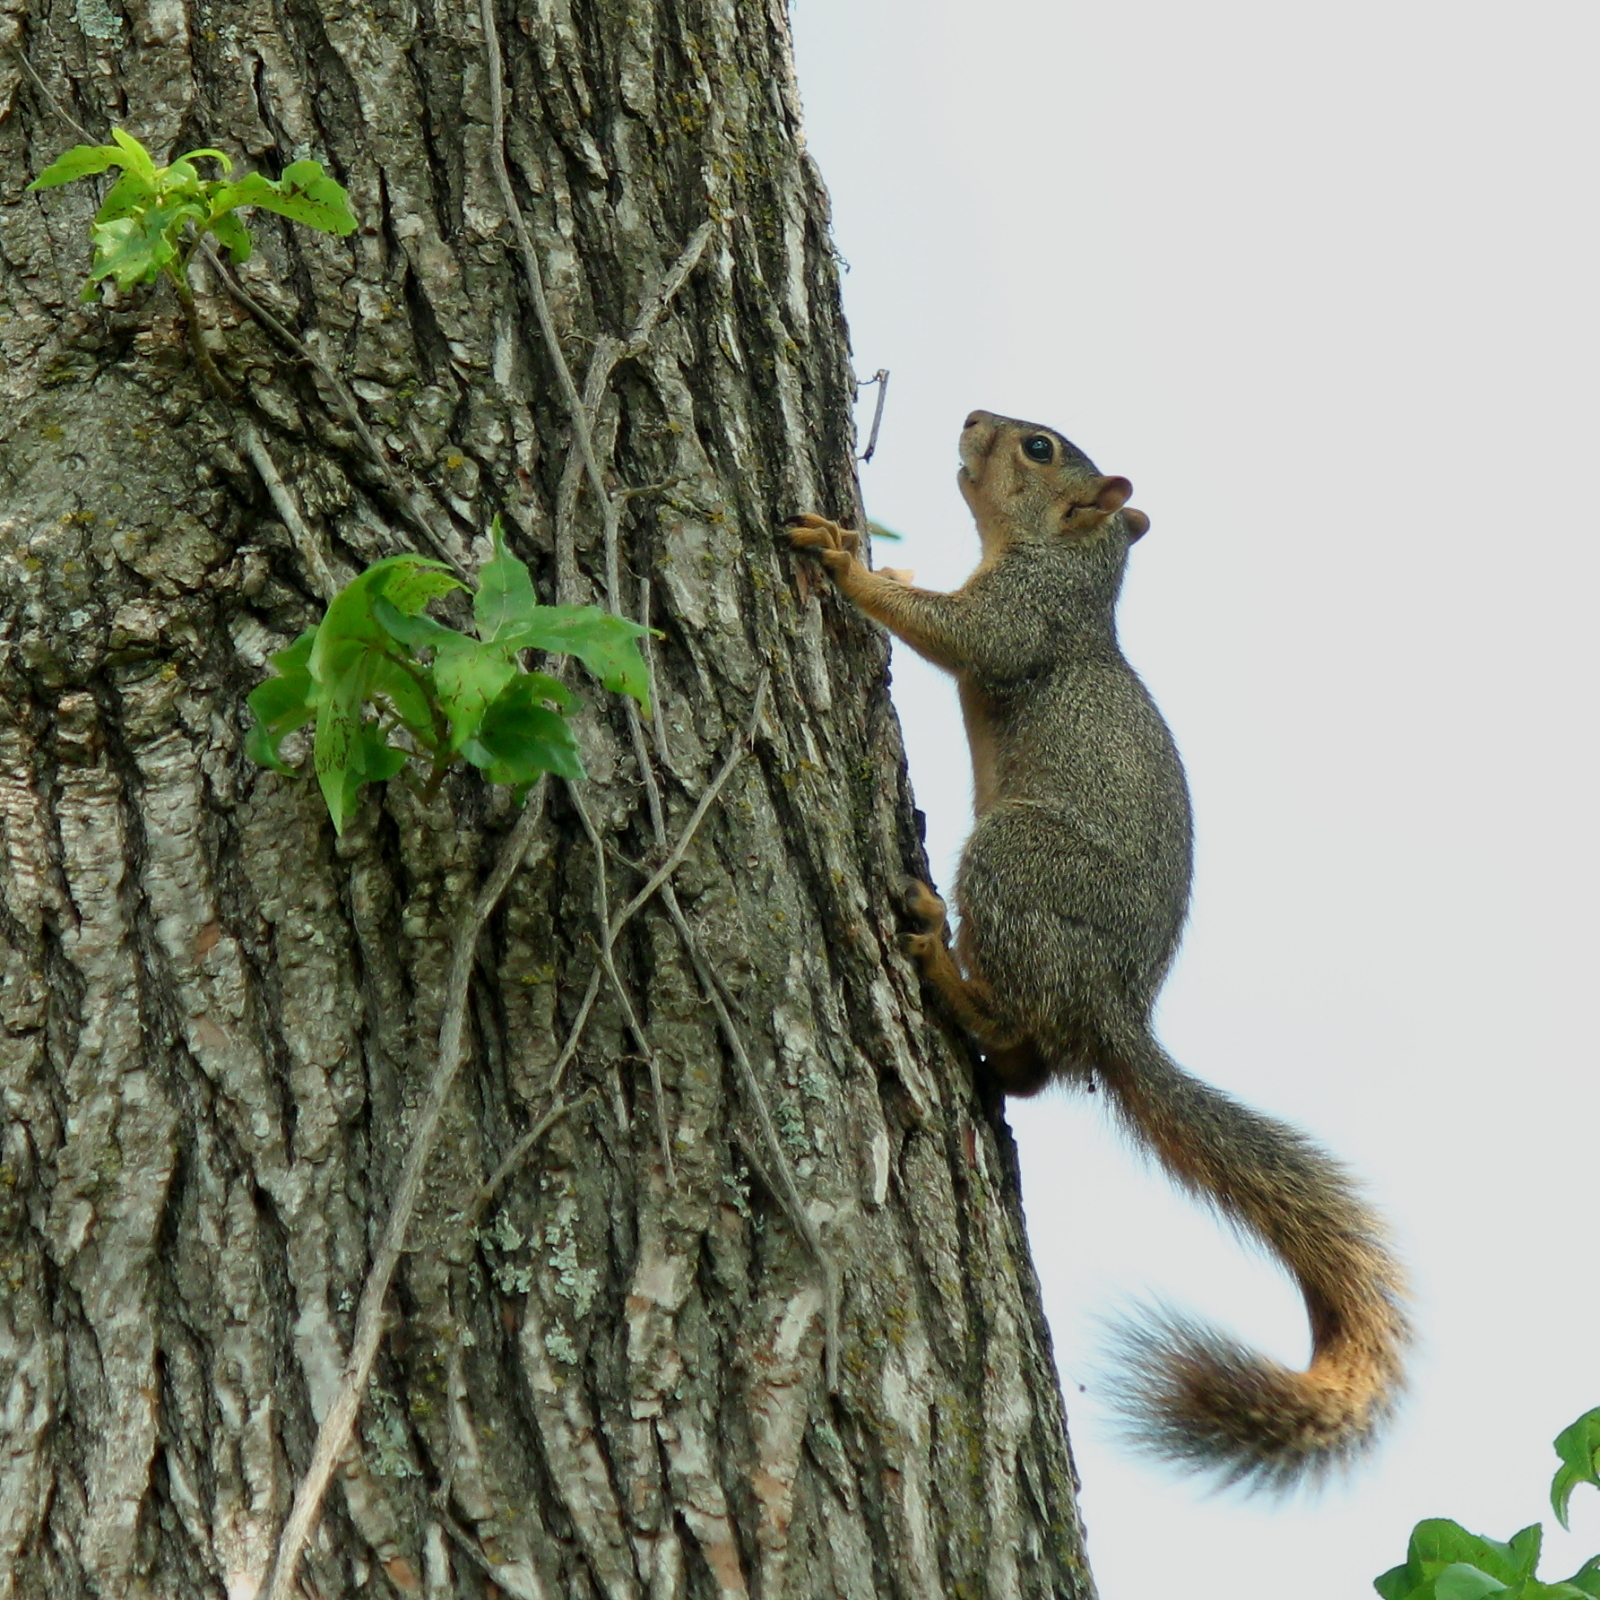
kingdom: Animalia
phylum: Chordata
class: Mammalia
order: Rodentia
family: Sciuridae
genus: Sciurus
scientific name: Sciurus niger
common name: Fox squirrel
